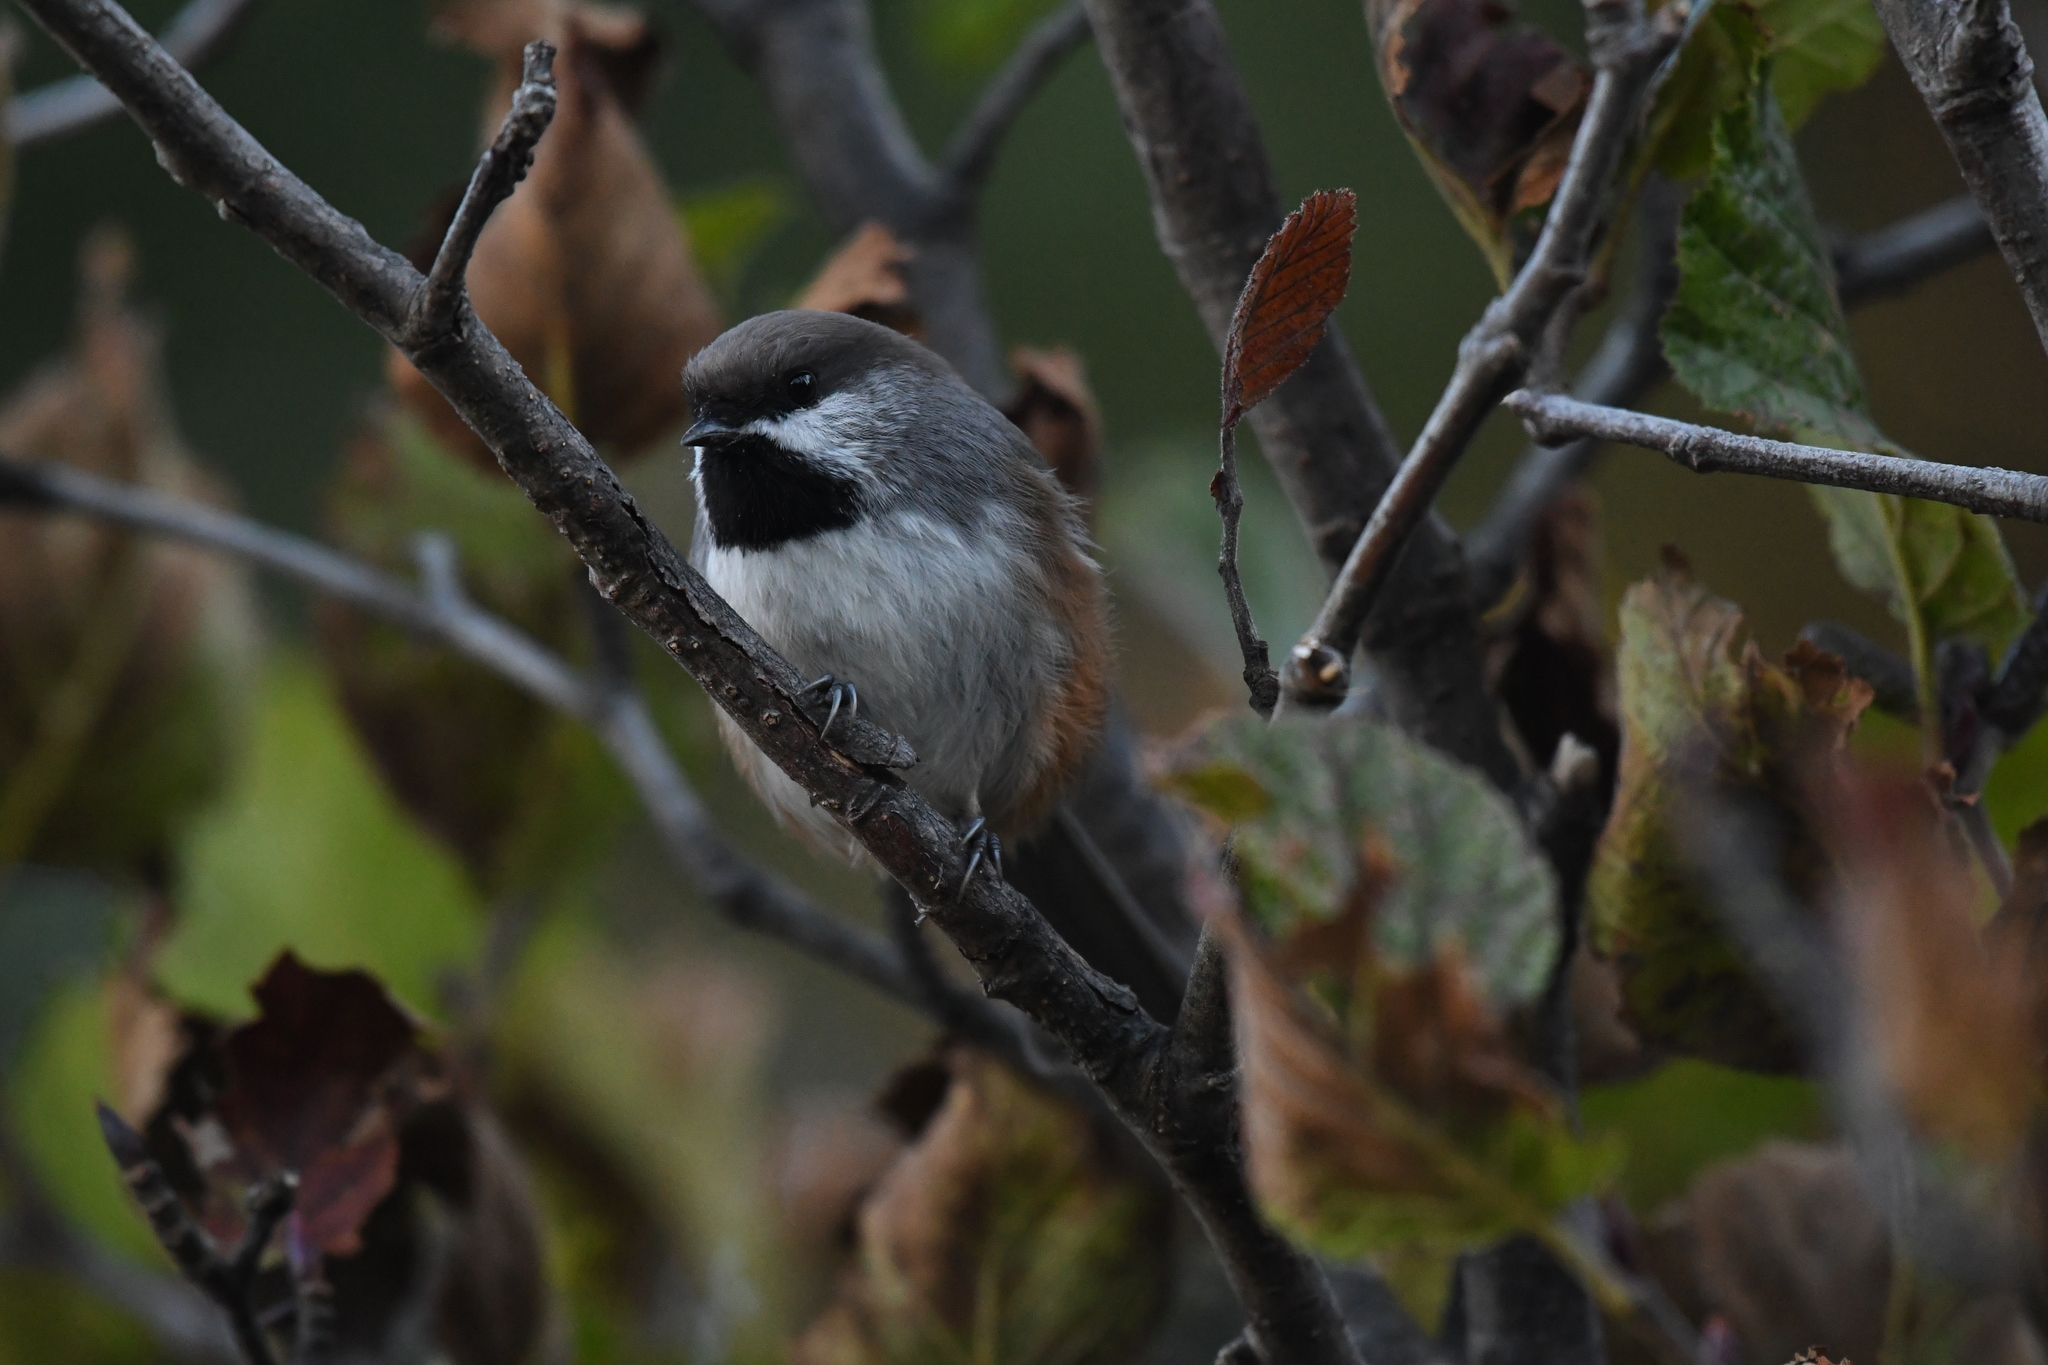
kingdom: Animalia
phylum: Chordata
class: Aves
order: Passeriformes
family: Paridae
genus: Poecile
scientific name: Poecile hudsonicus
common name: Boreal chickadee
